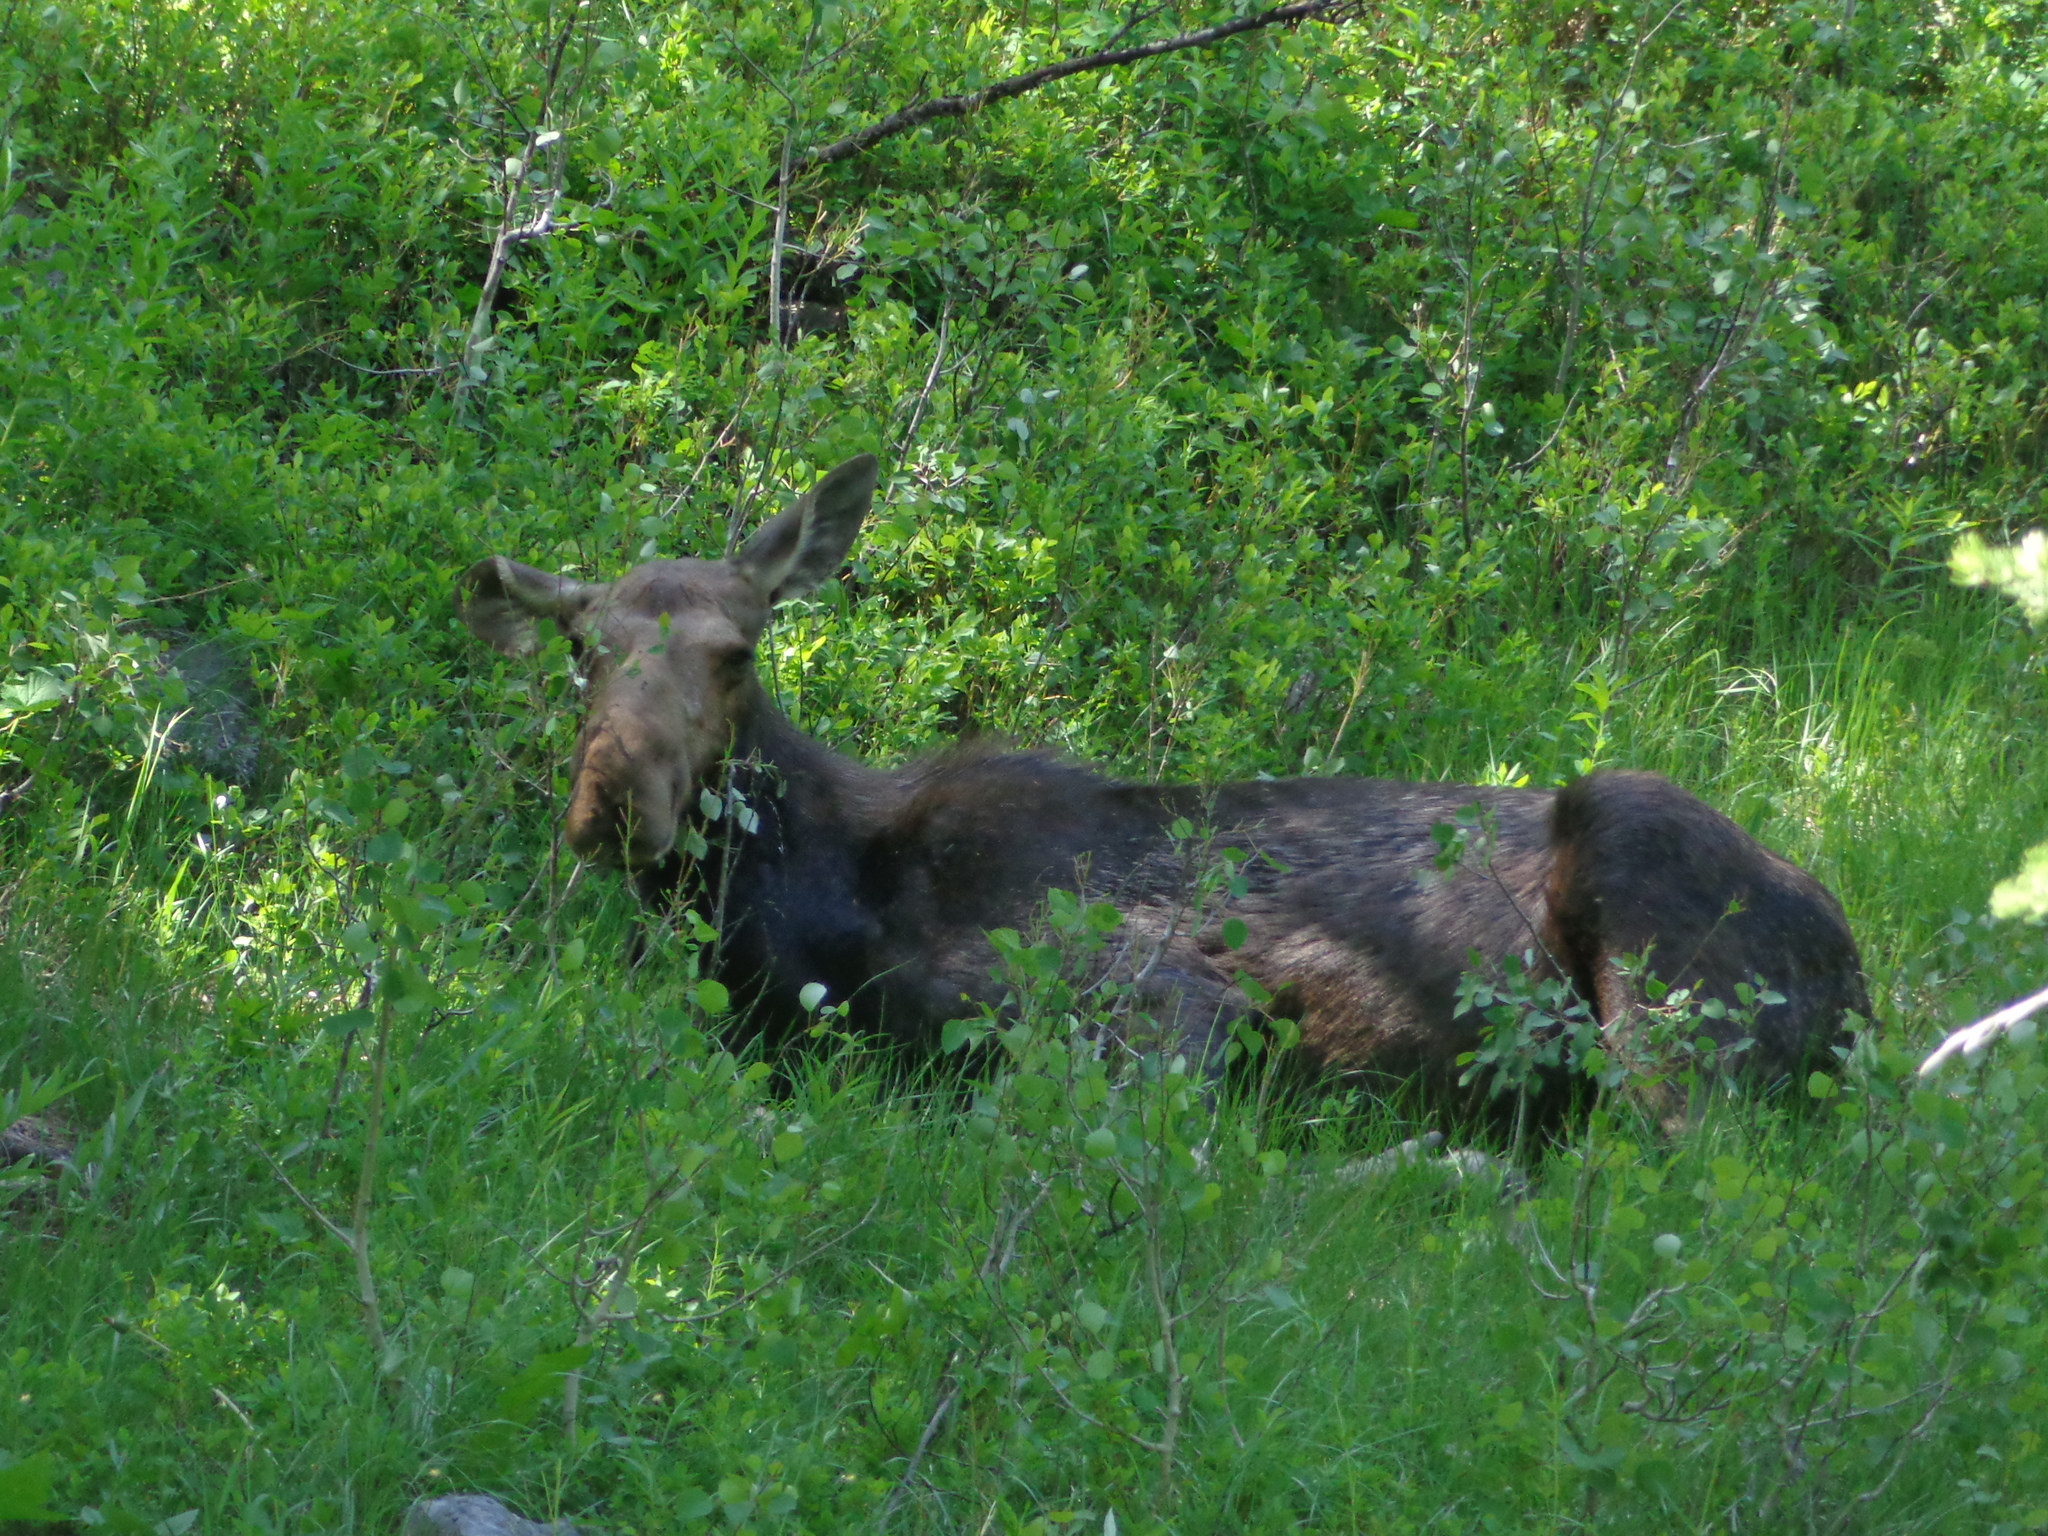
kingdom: Animalia
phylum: Chordata
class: Mammalia
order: Artiodactyla
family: Cervidae
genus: Alces
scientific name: Alces alces
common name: Moose
